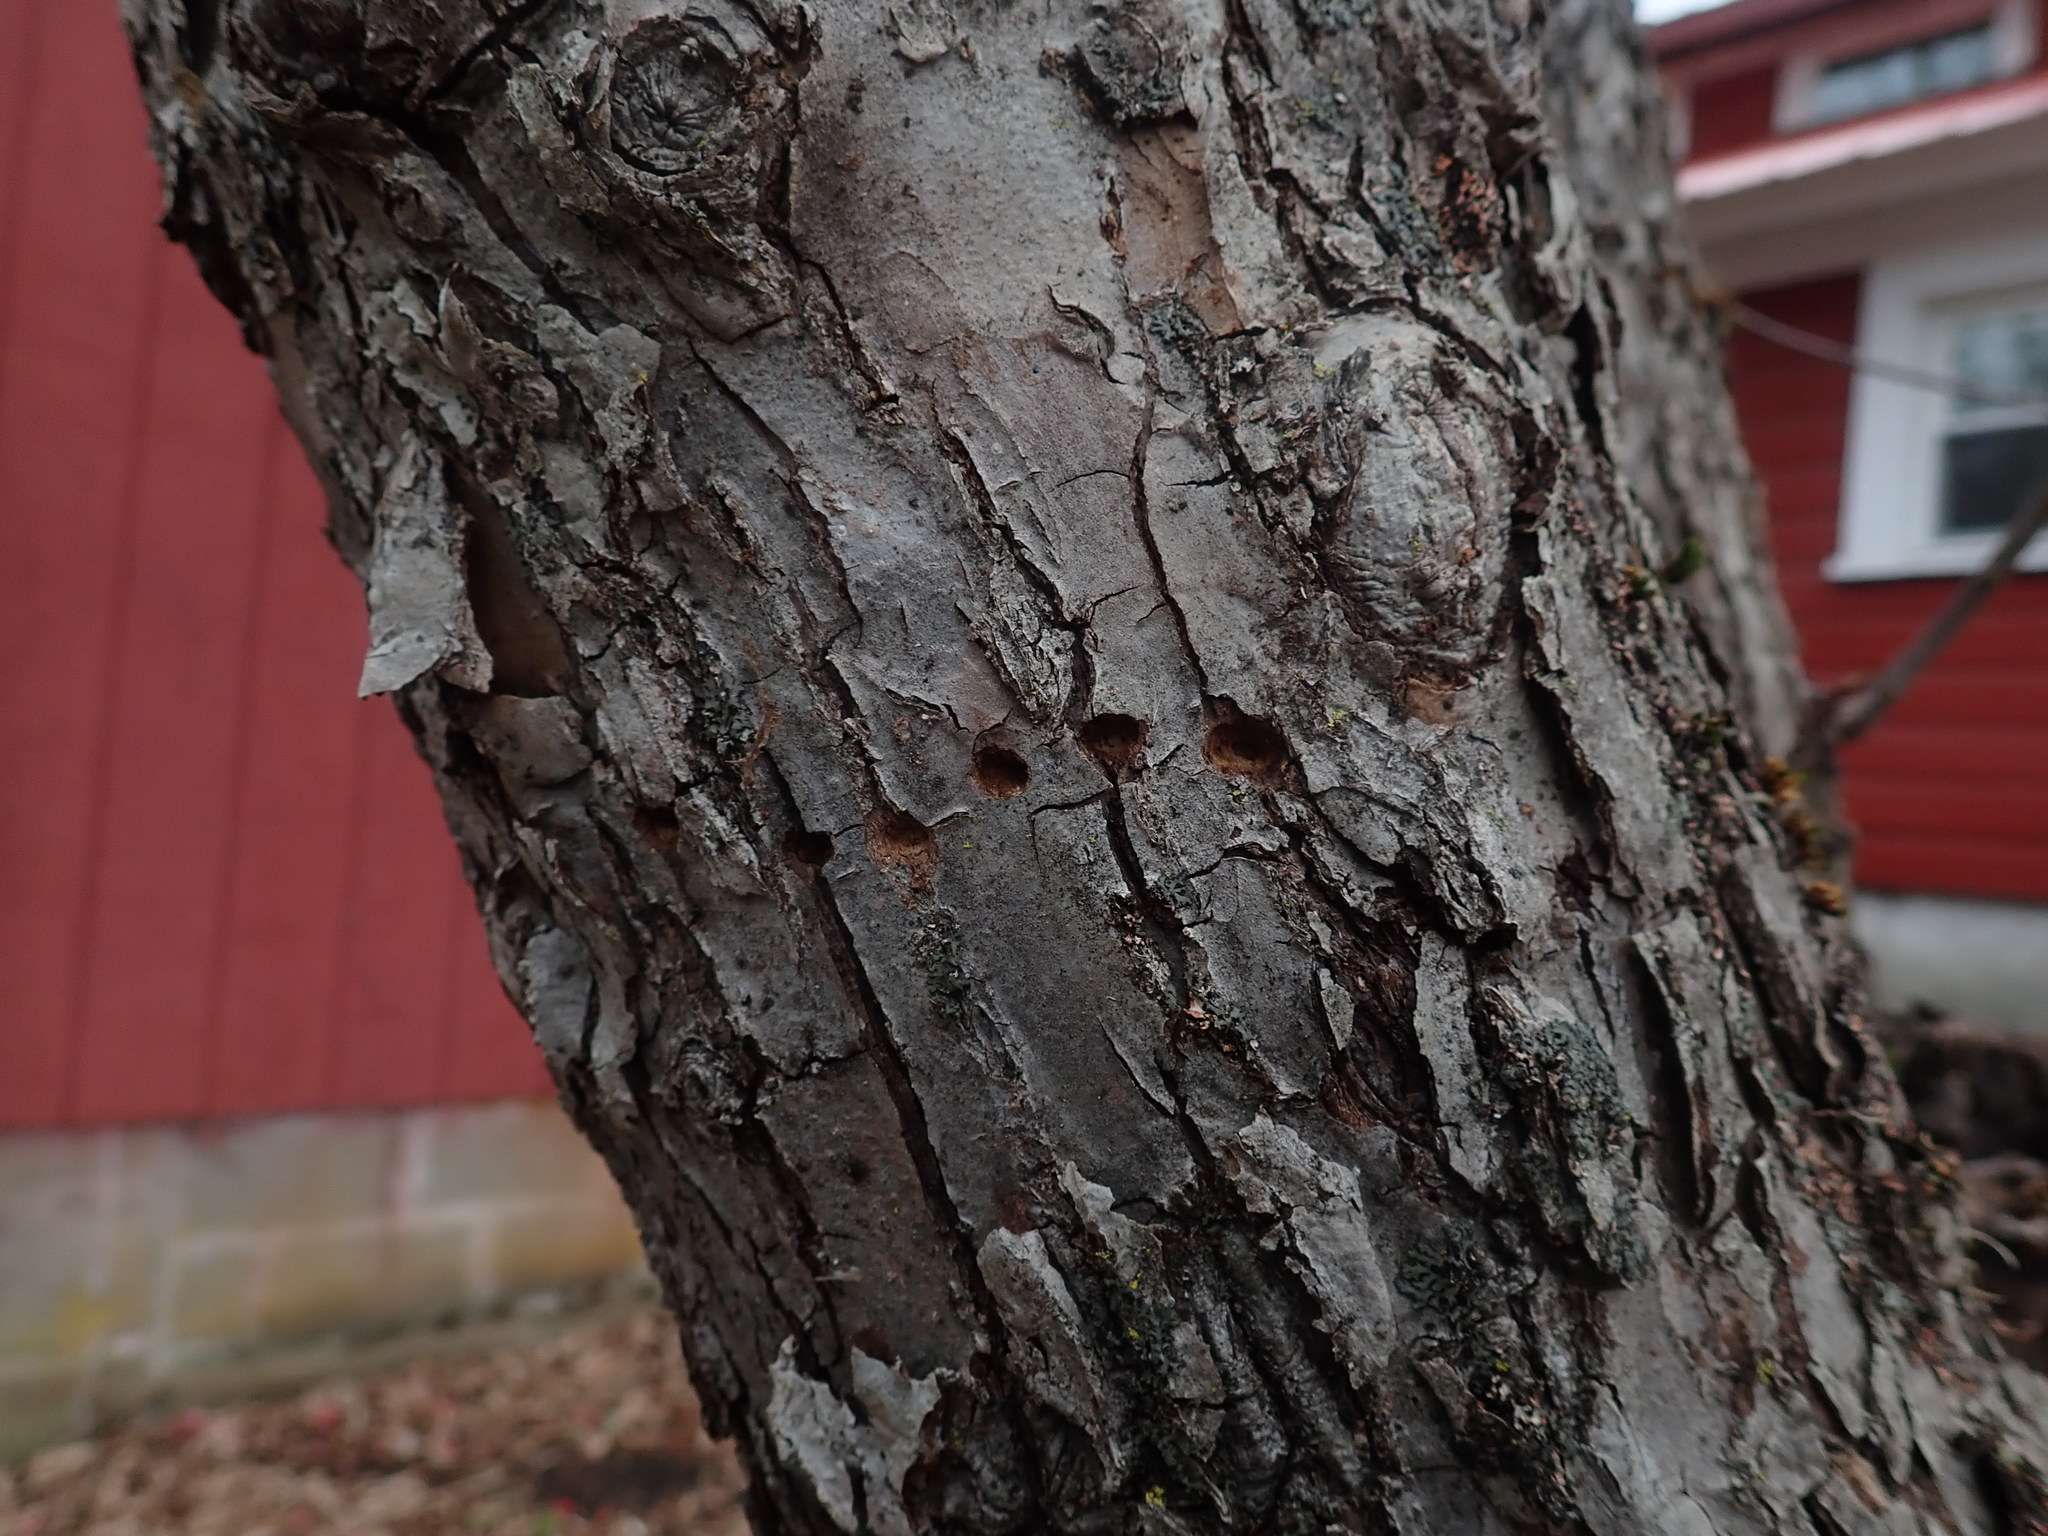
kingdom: Animalia
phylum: Chordata
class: Aves
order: Piciformes
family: Picidae
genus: Sphyrapicus
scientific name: Sphyrapicus varius
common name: Yellow-bellied sapsucker
